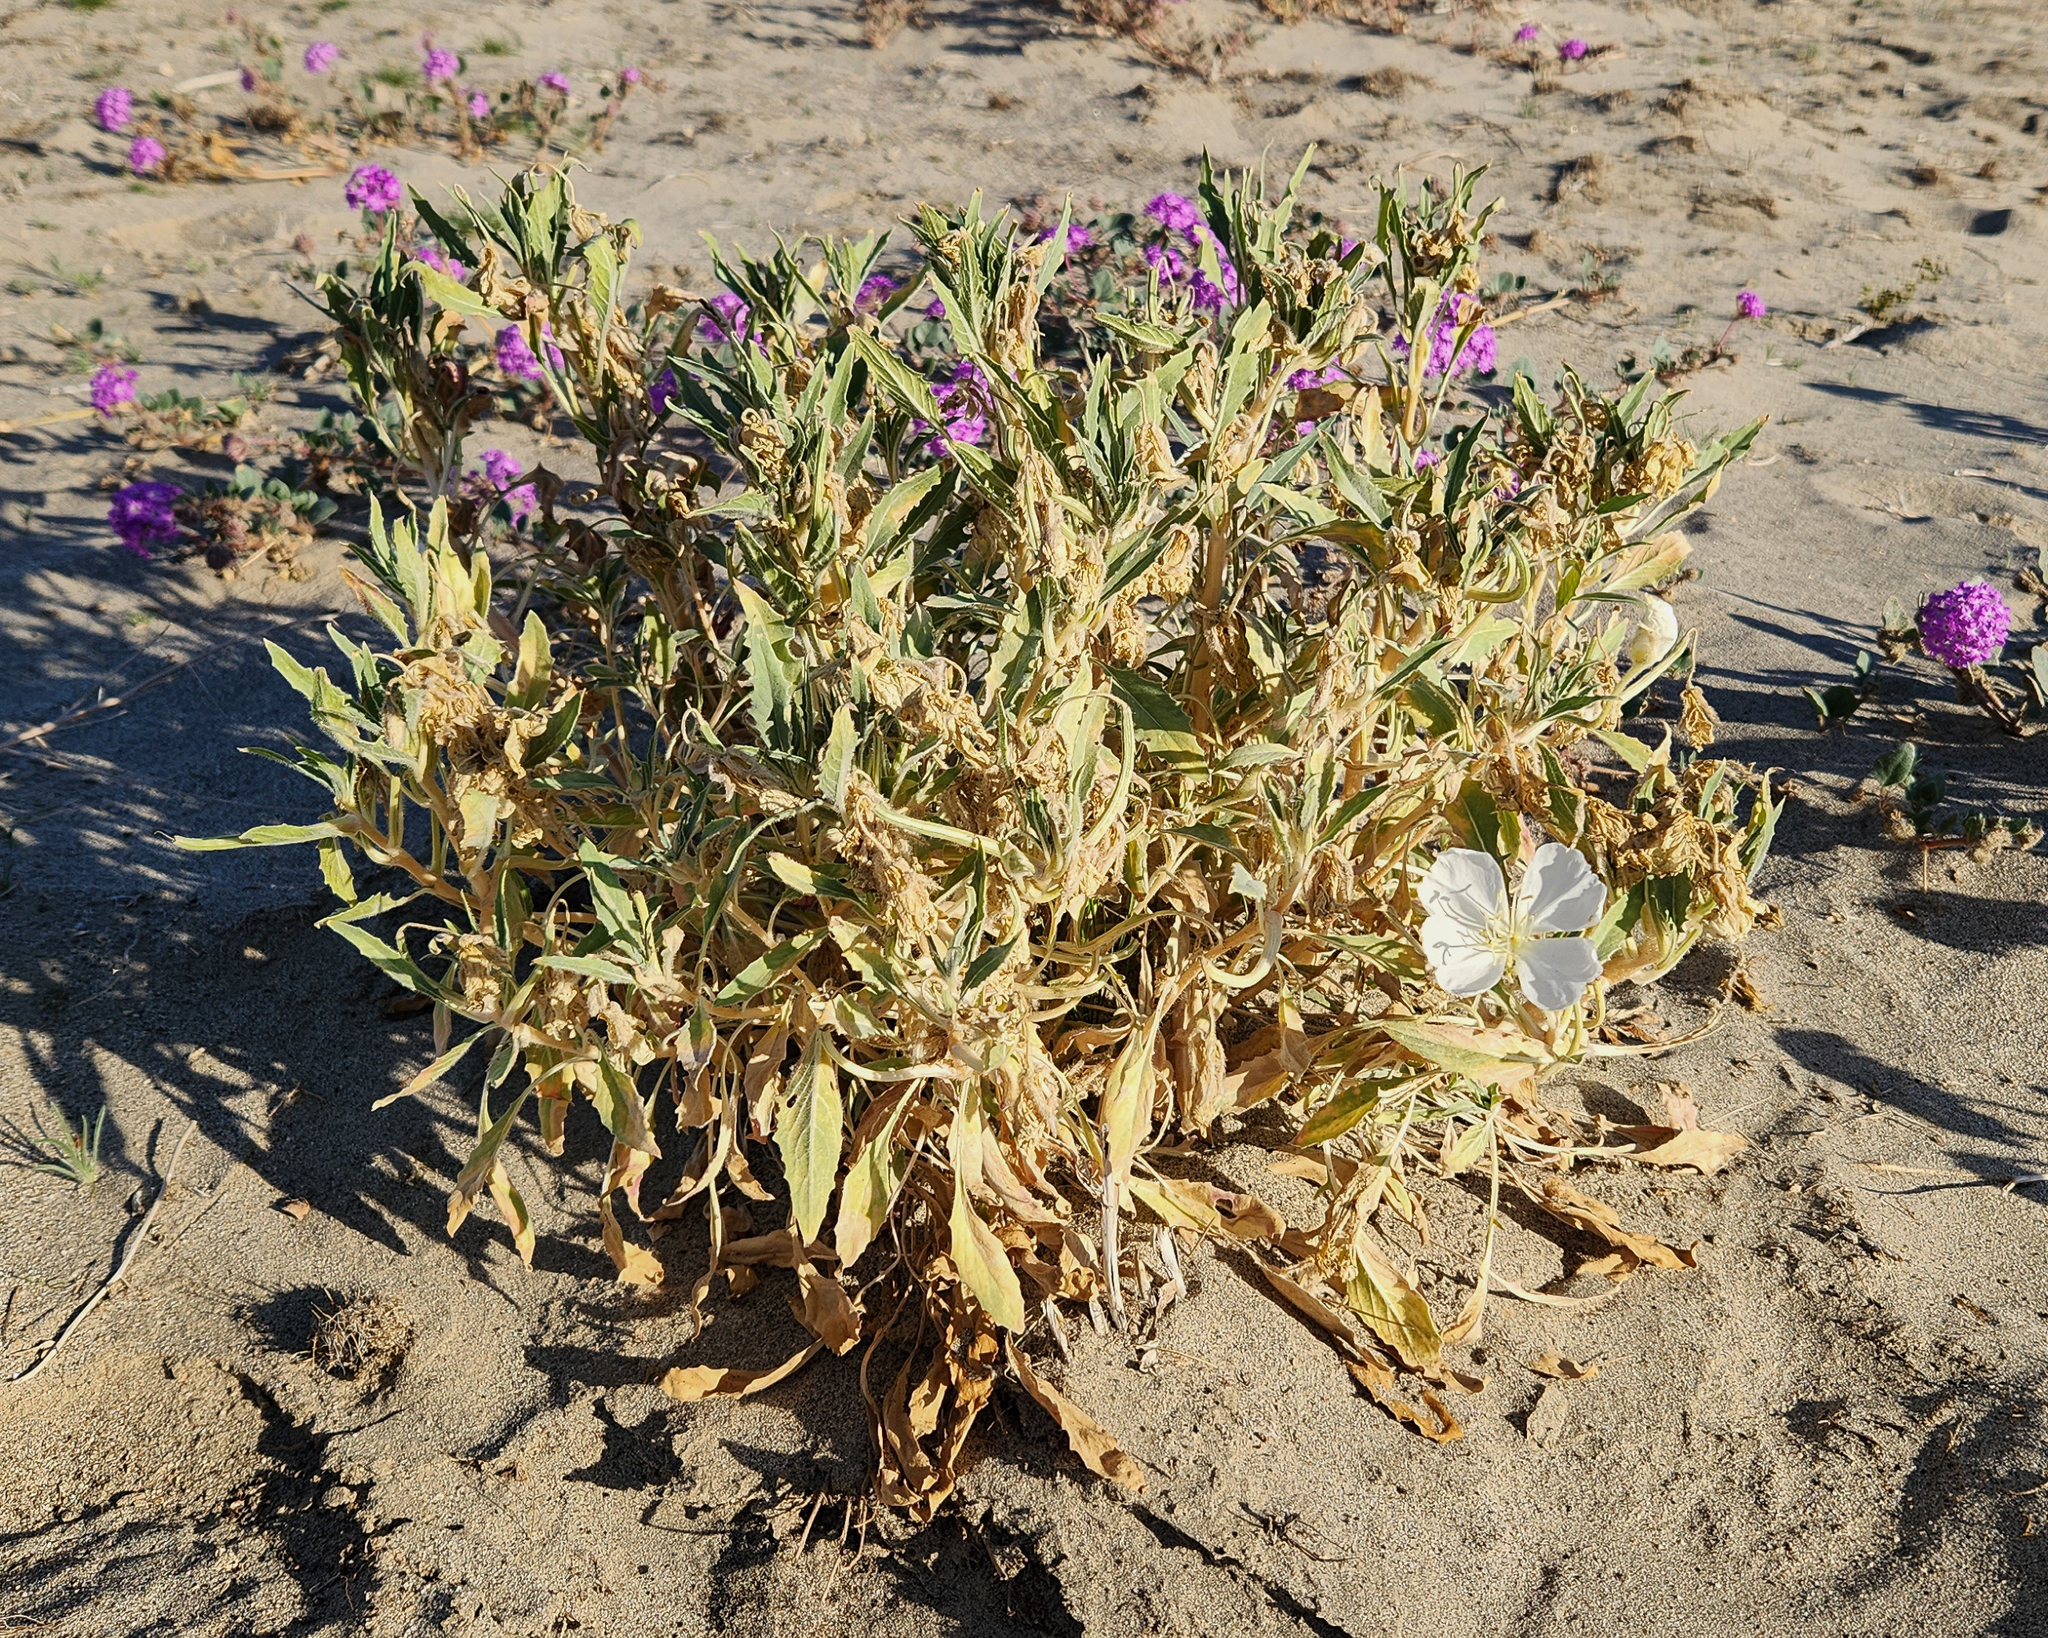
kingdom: Plantae
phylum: Tracheophyta
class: Magnoliopsida
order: Myrtales
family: Onagraceae
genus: Oenothera
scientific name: Oenothera deltoides
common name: Basket evening-primrose
